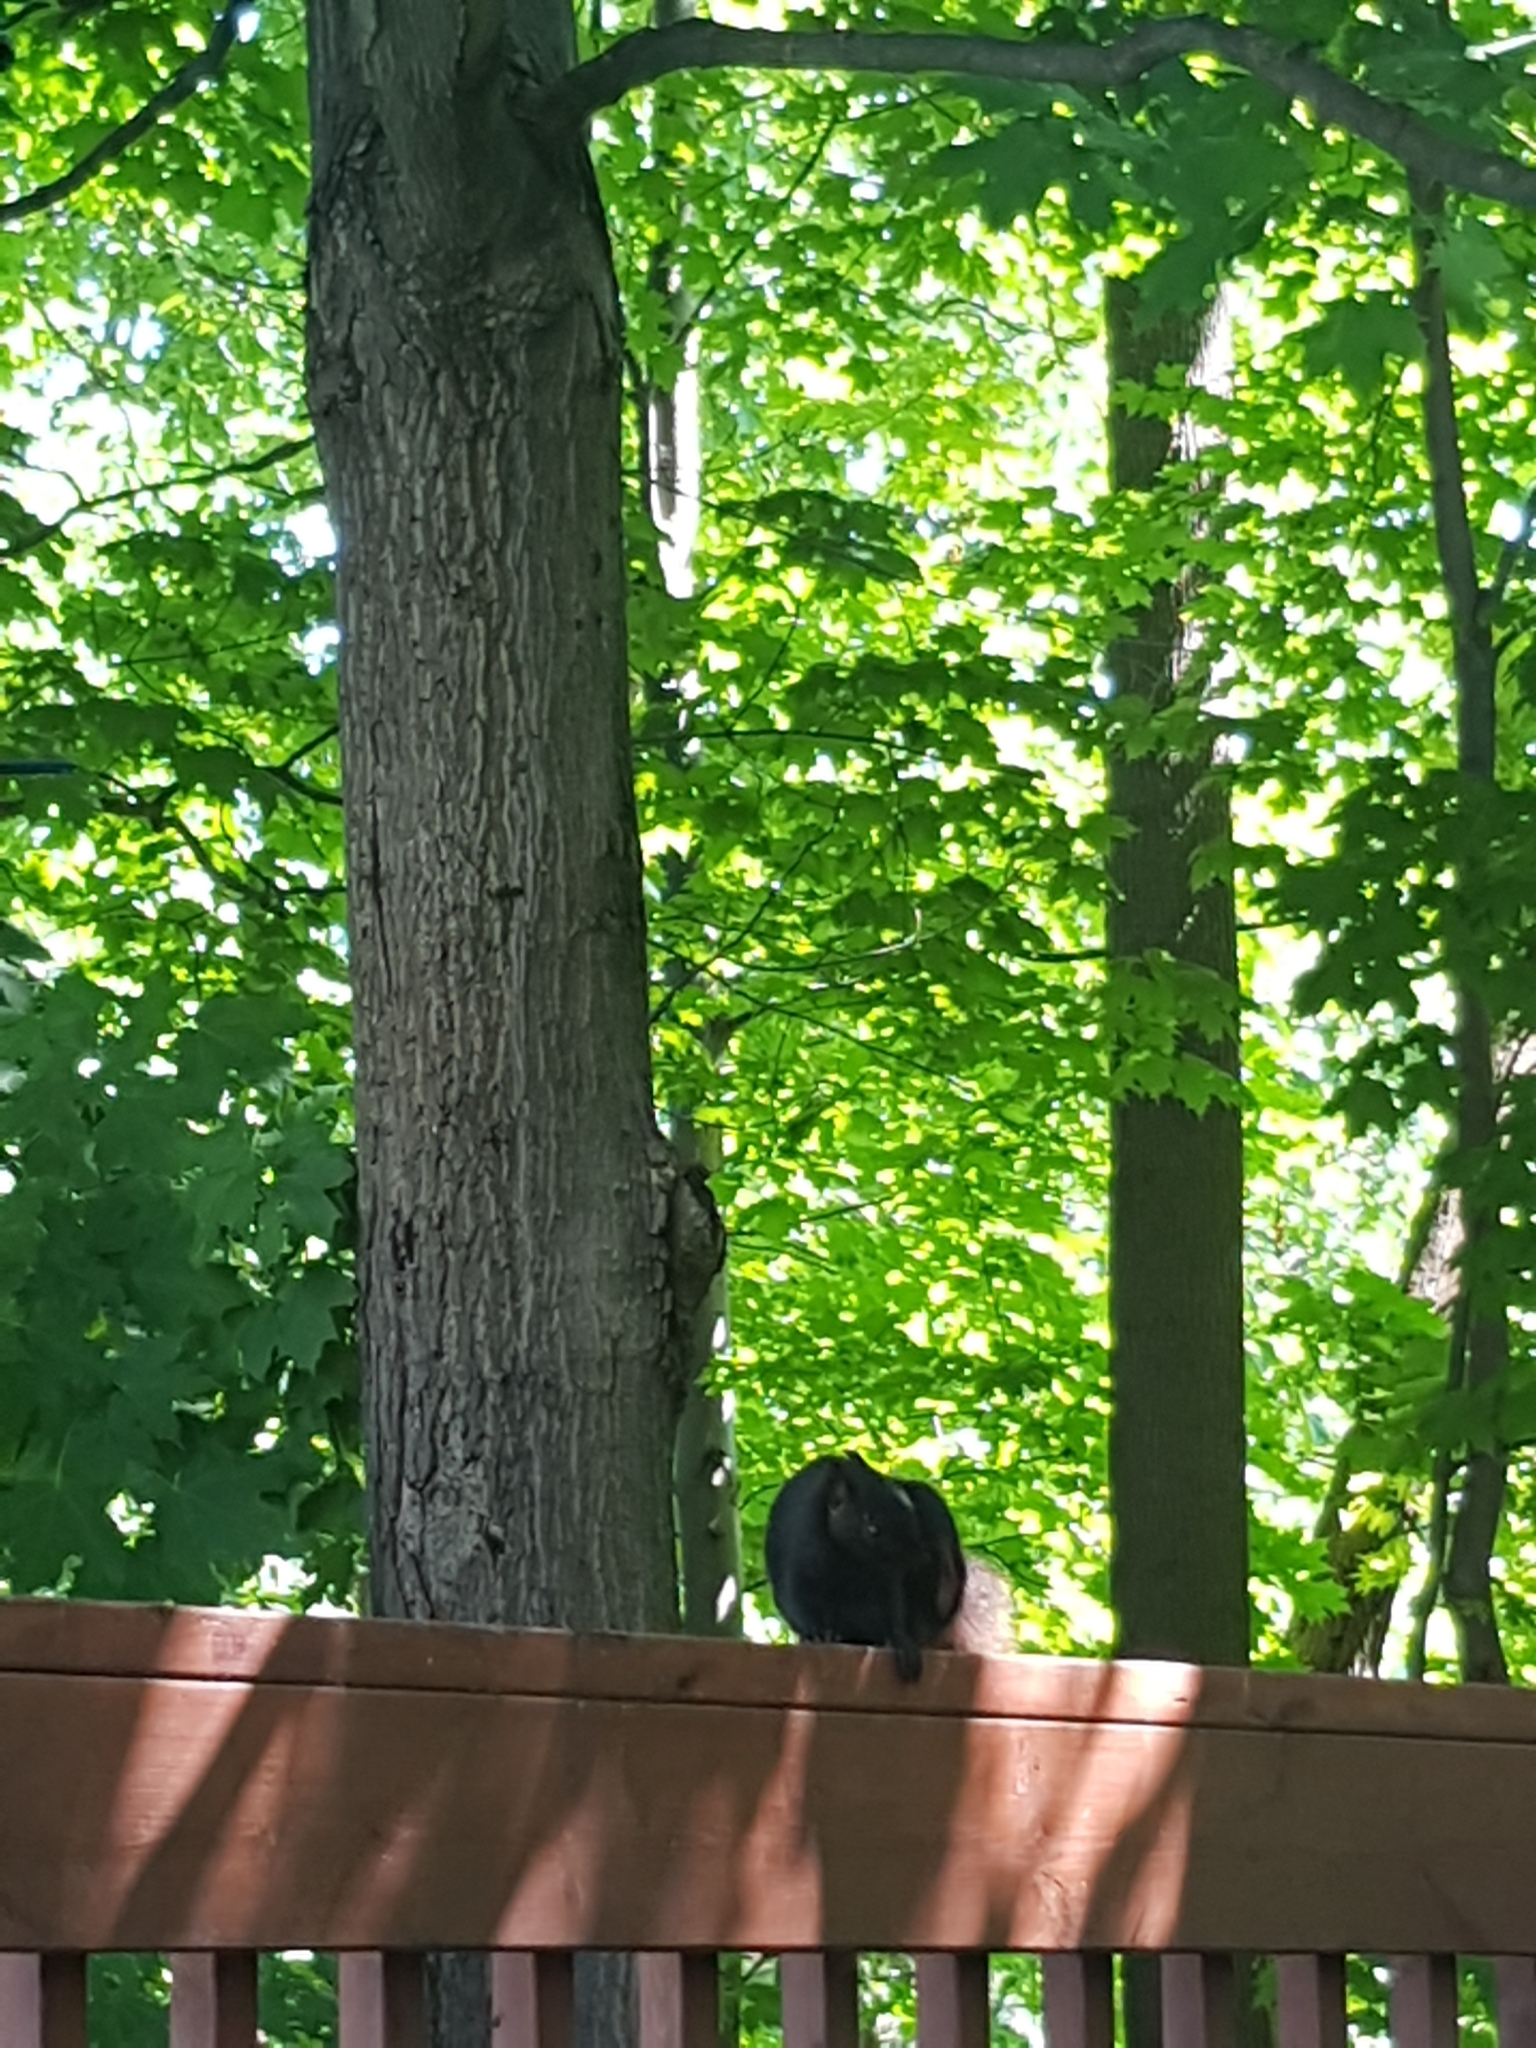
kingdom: Animalia
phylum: Chordata
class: Mammalia
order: Rodentia
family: Sciuridae
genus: Sciurus
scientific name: Sciurus carolinensis
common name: Eastern gray squirrel
